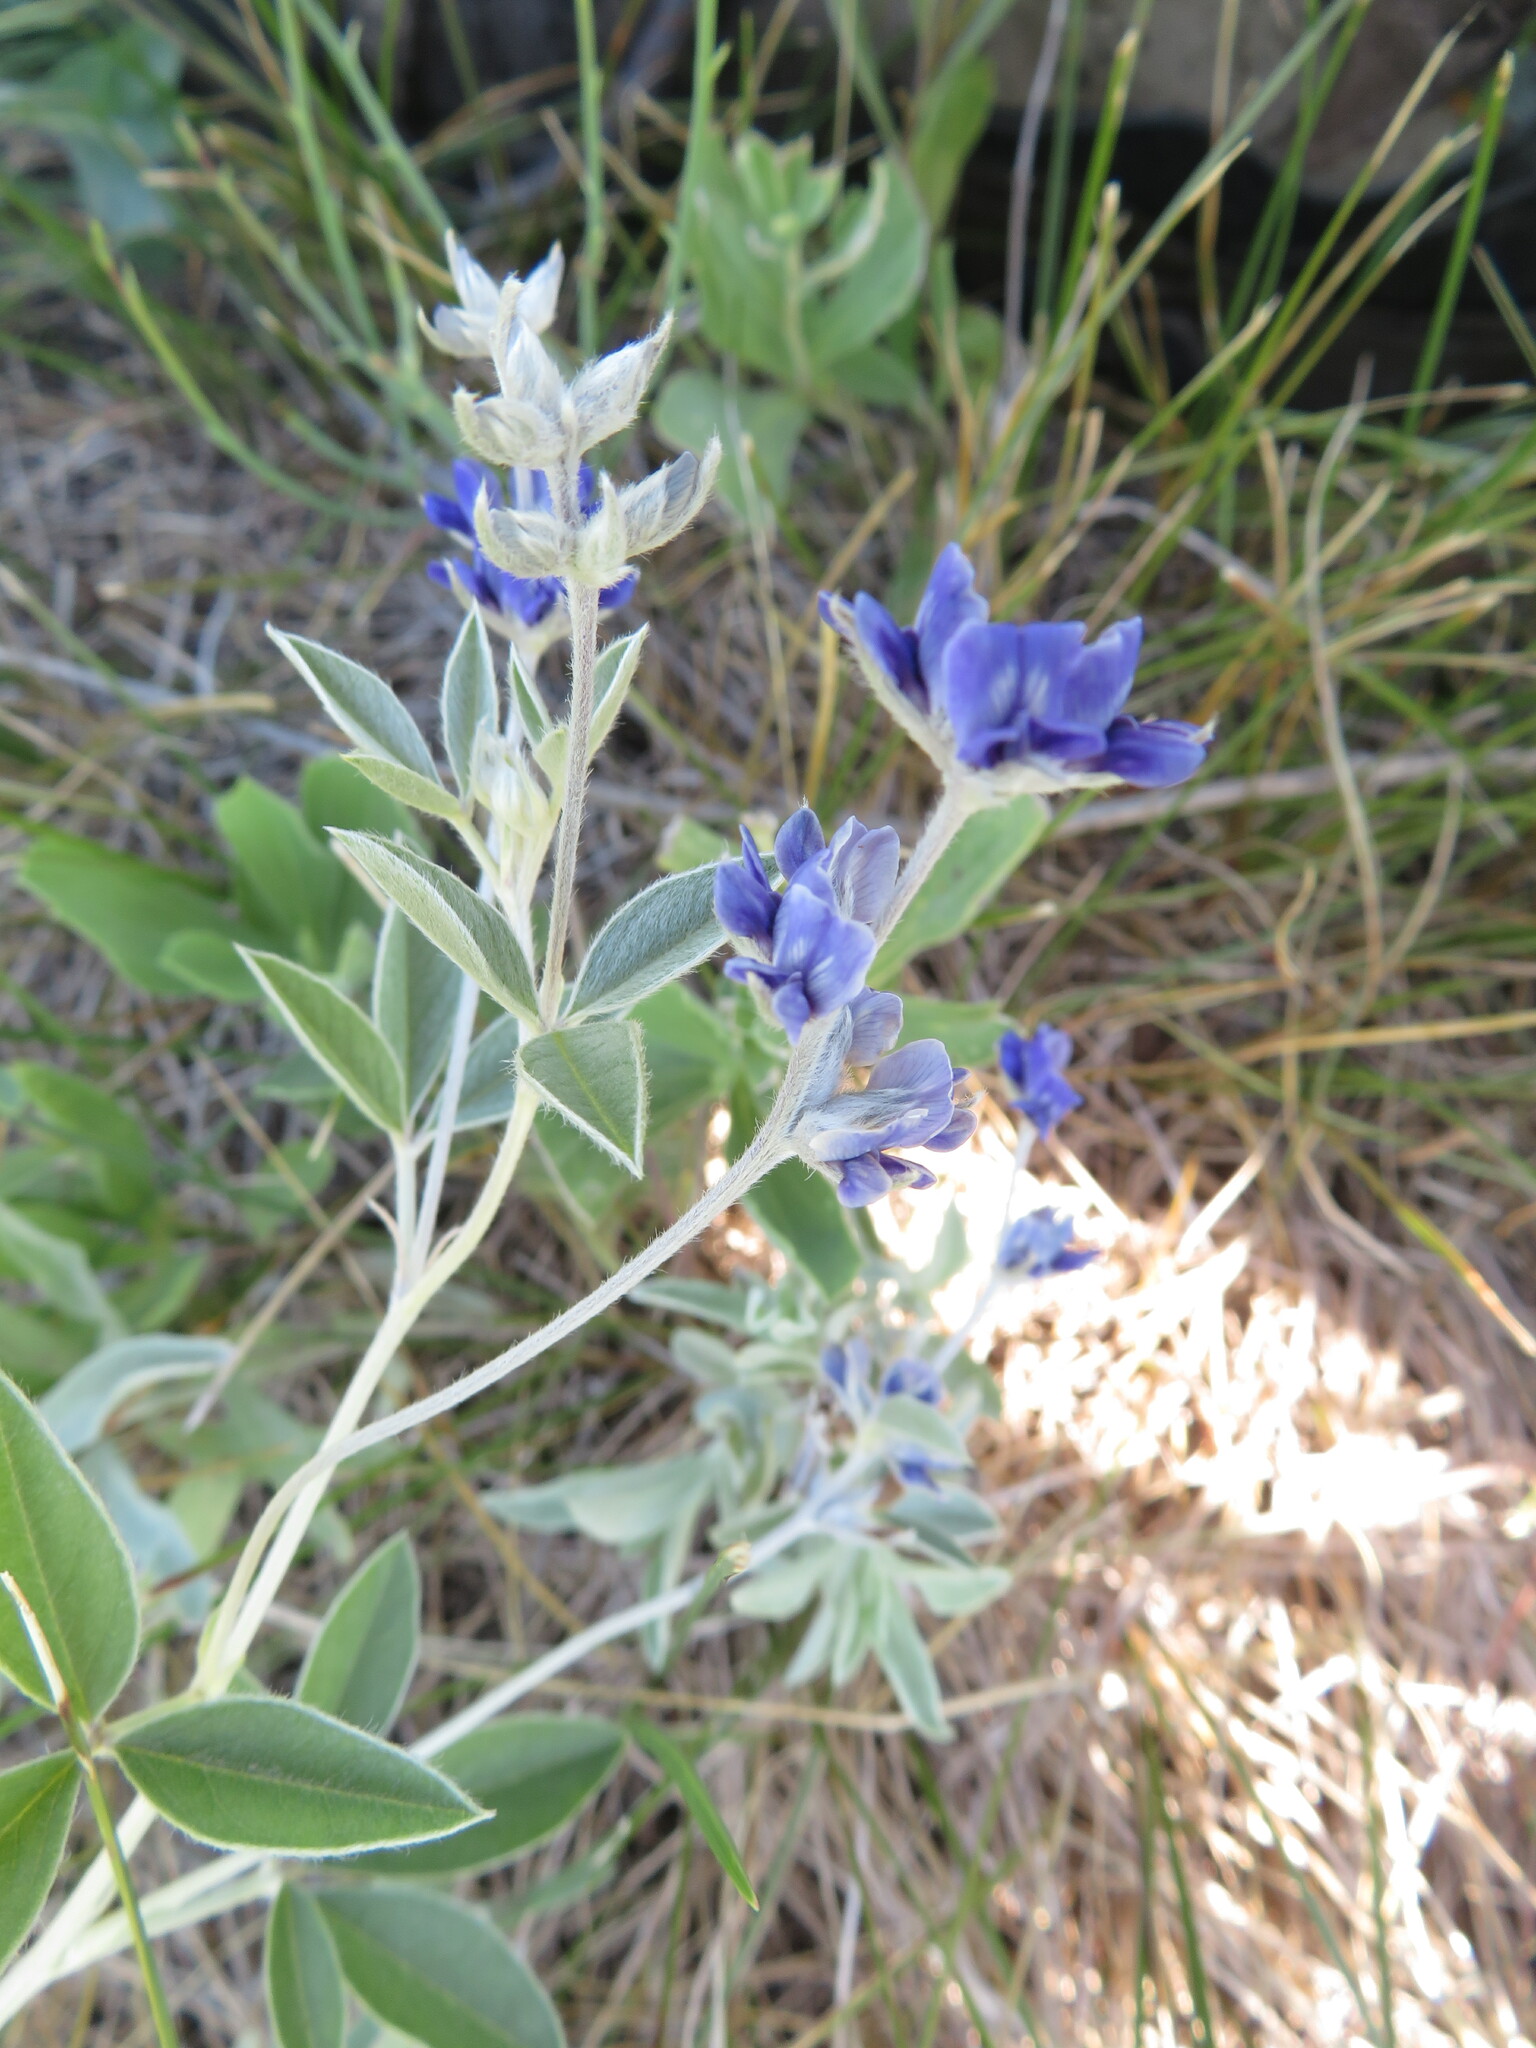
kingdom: Plantae
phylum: Tracheophyta
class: Magnoliopsida
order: Fabales
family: Fabaceae
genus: Pediomelum
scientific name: Pediomelum argophyllum
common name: Silver-leaved indian breadroot
